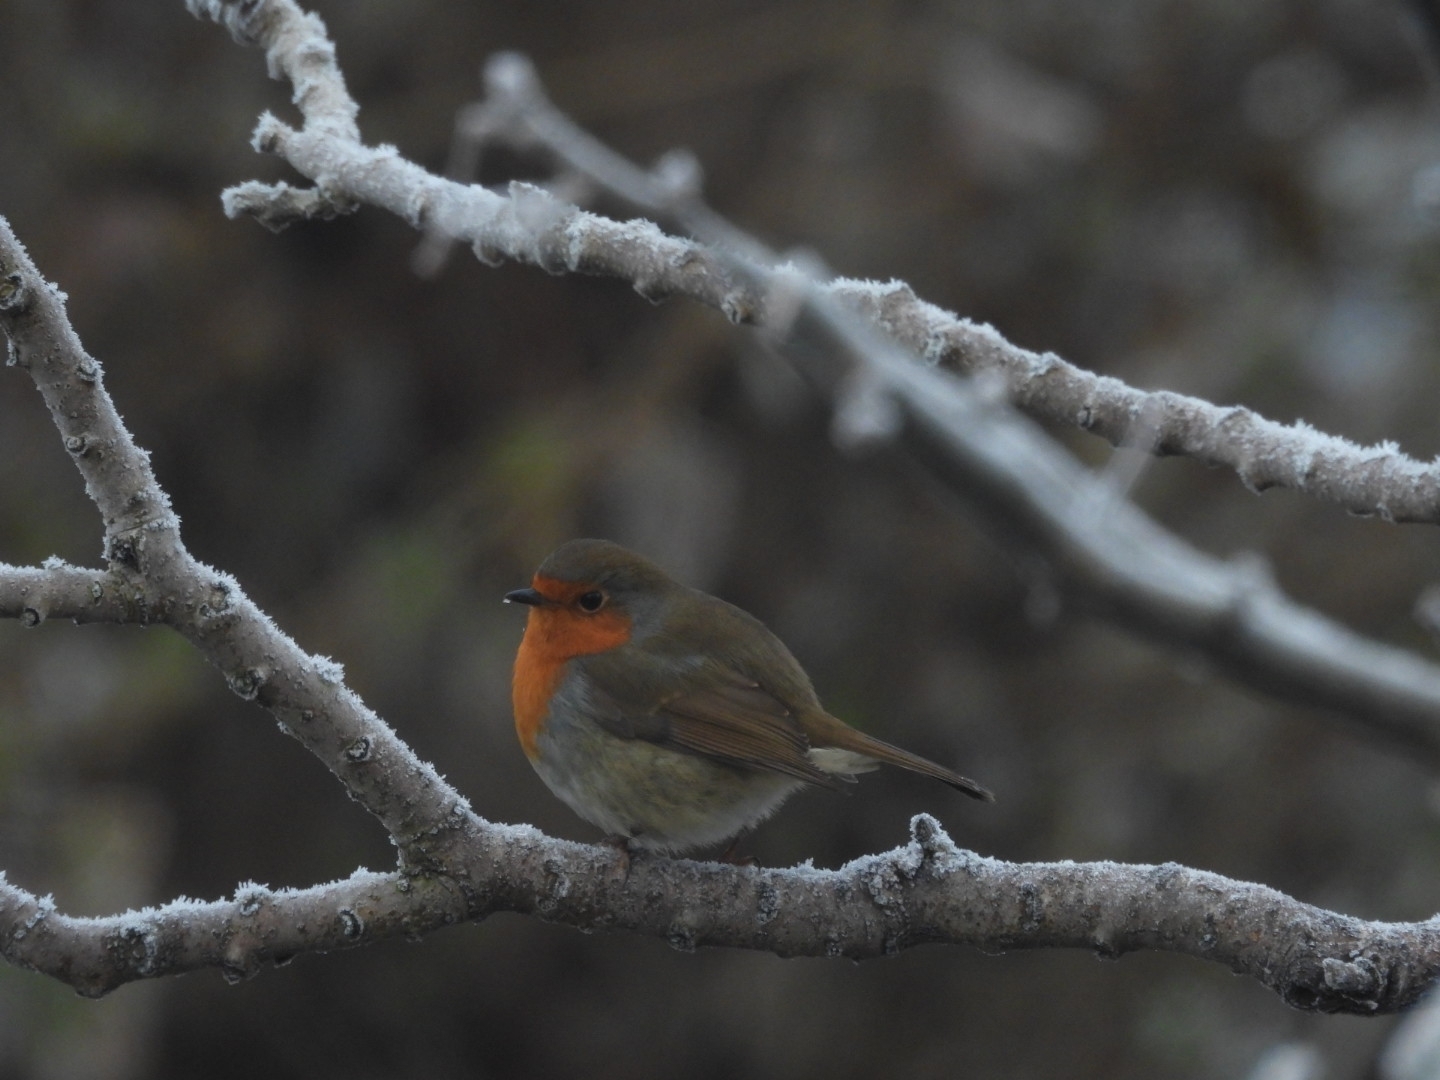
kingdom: Animalia
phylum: Chordata
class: Aves
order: Passeriformes
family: Muscicapidae
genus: Erithacus
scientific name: Erithacus rubecula
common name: European robin
